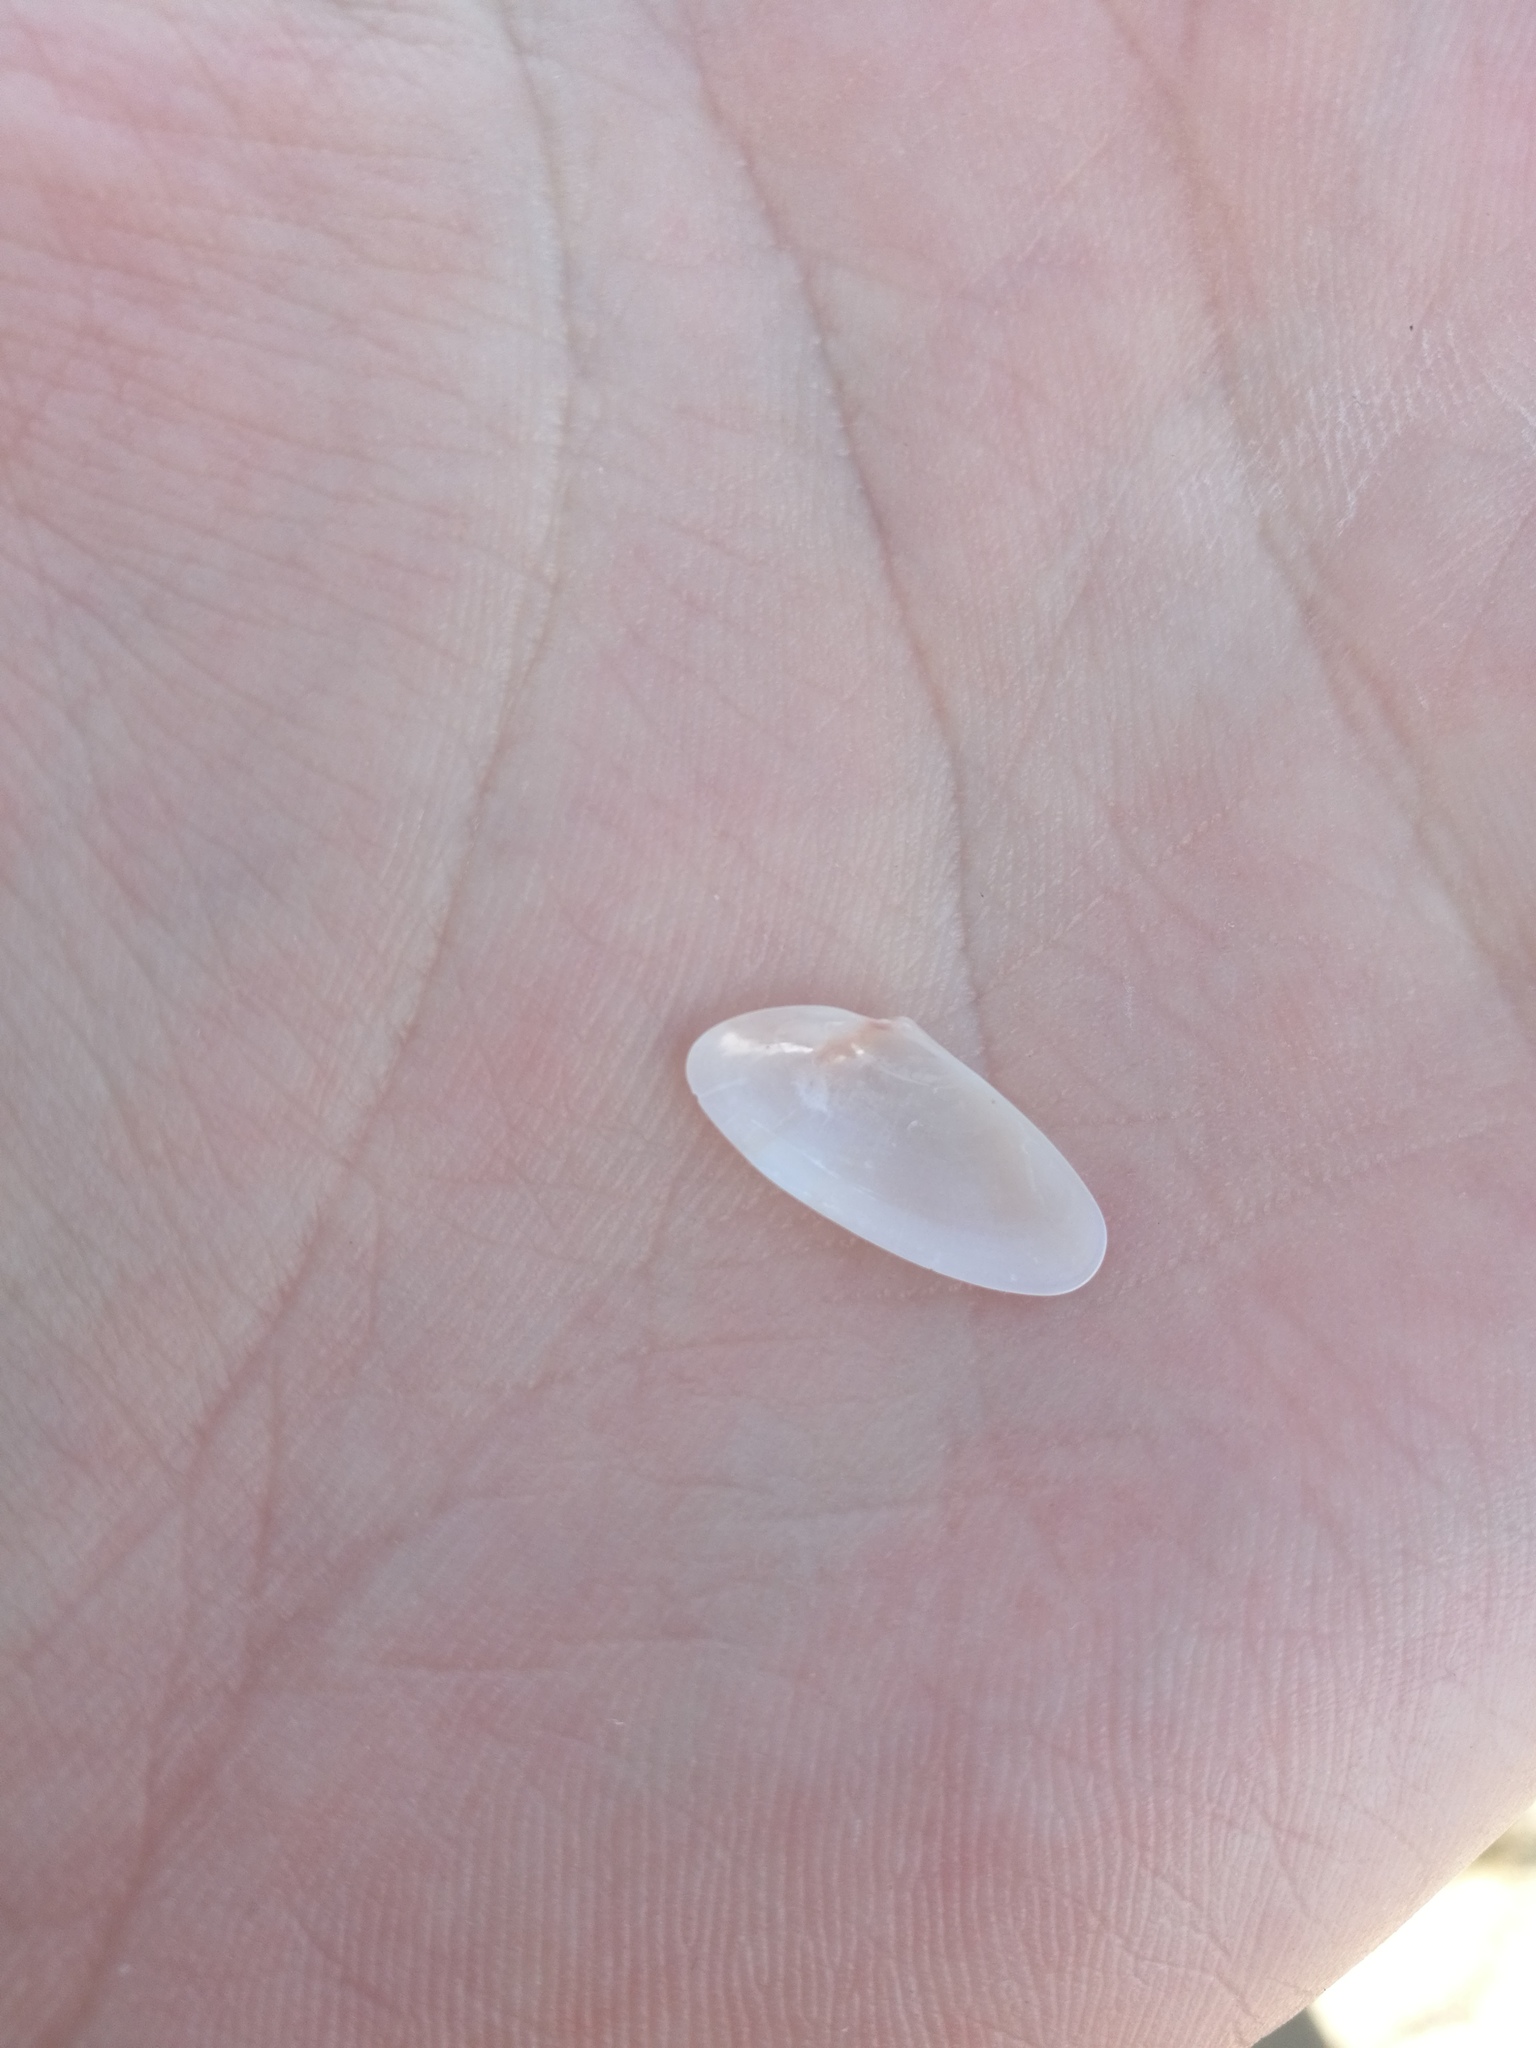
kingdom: Animalia
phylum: Mollusca
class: Bivalvia
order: Cardiida
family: Donacidae
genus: Donax
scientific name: Donax variegatus
